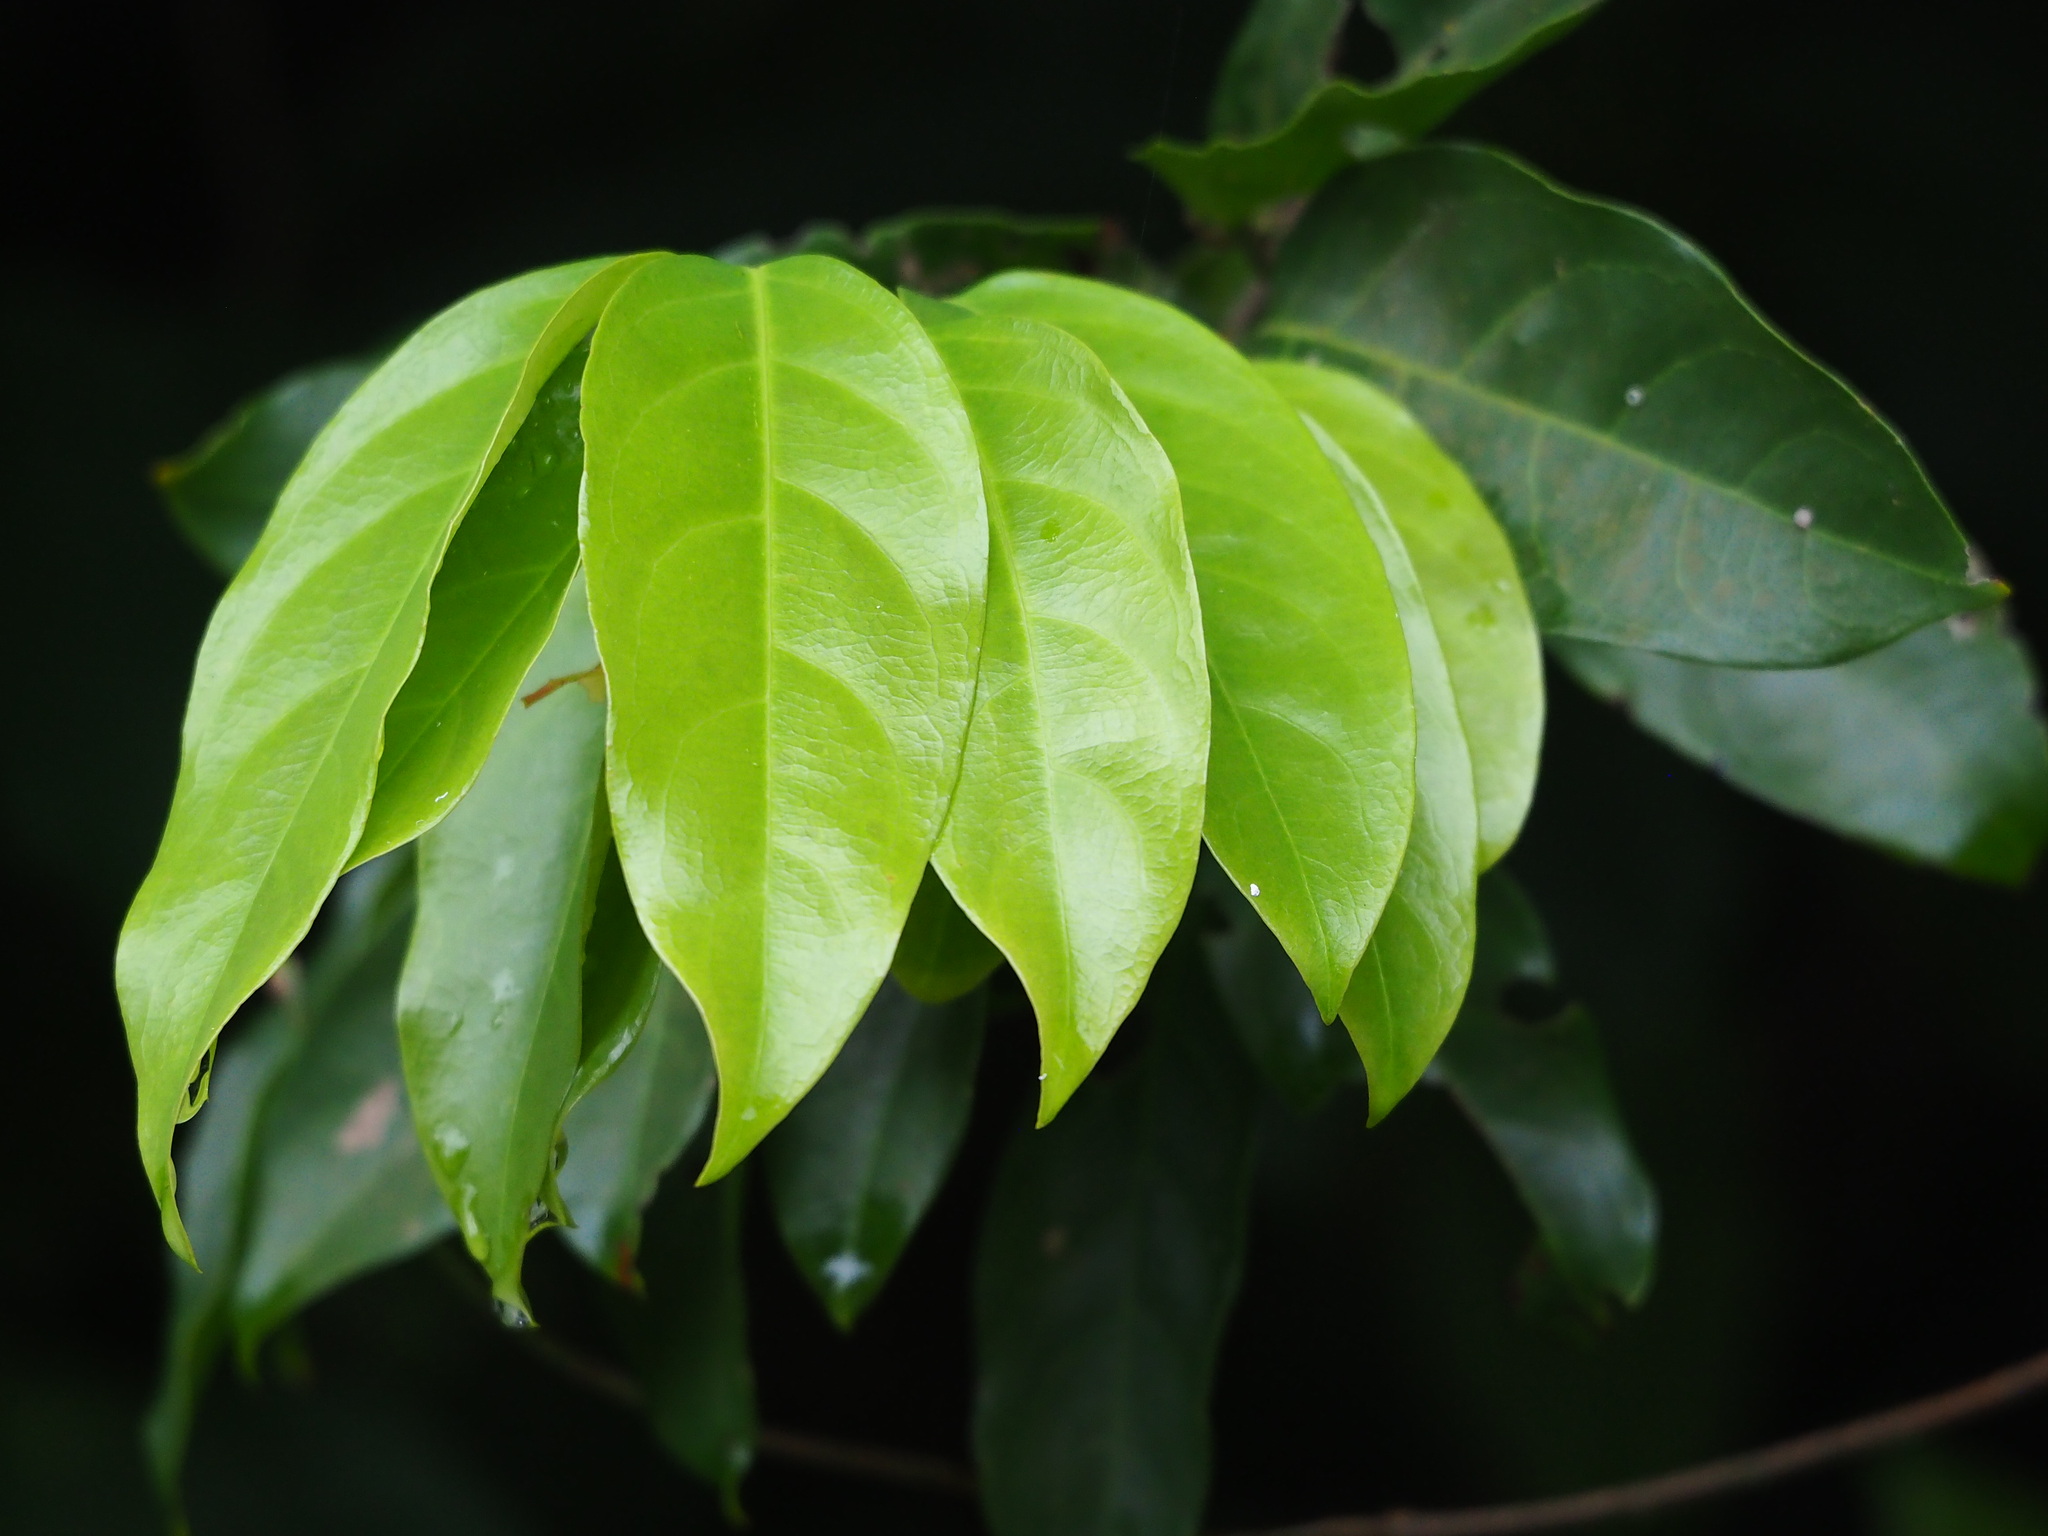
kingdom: Plantae
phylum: Tracheophyta
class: Magnoliopsida
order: Malpighiales
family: Malpighiaceae
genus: Hiptage
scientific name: Hiptage benghalensis
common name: Hiptage
